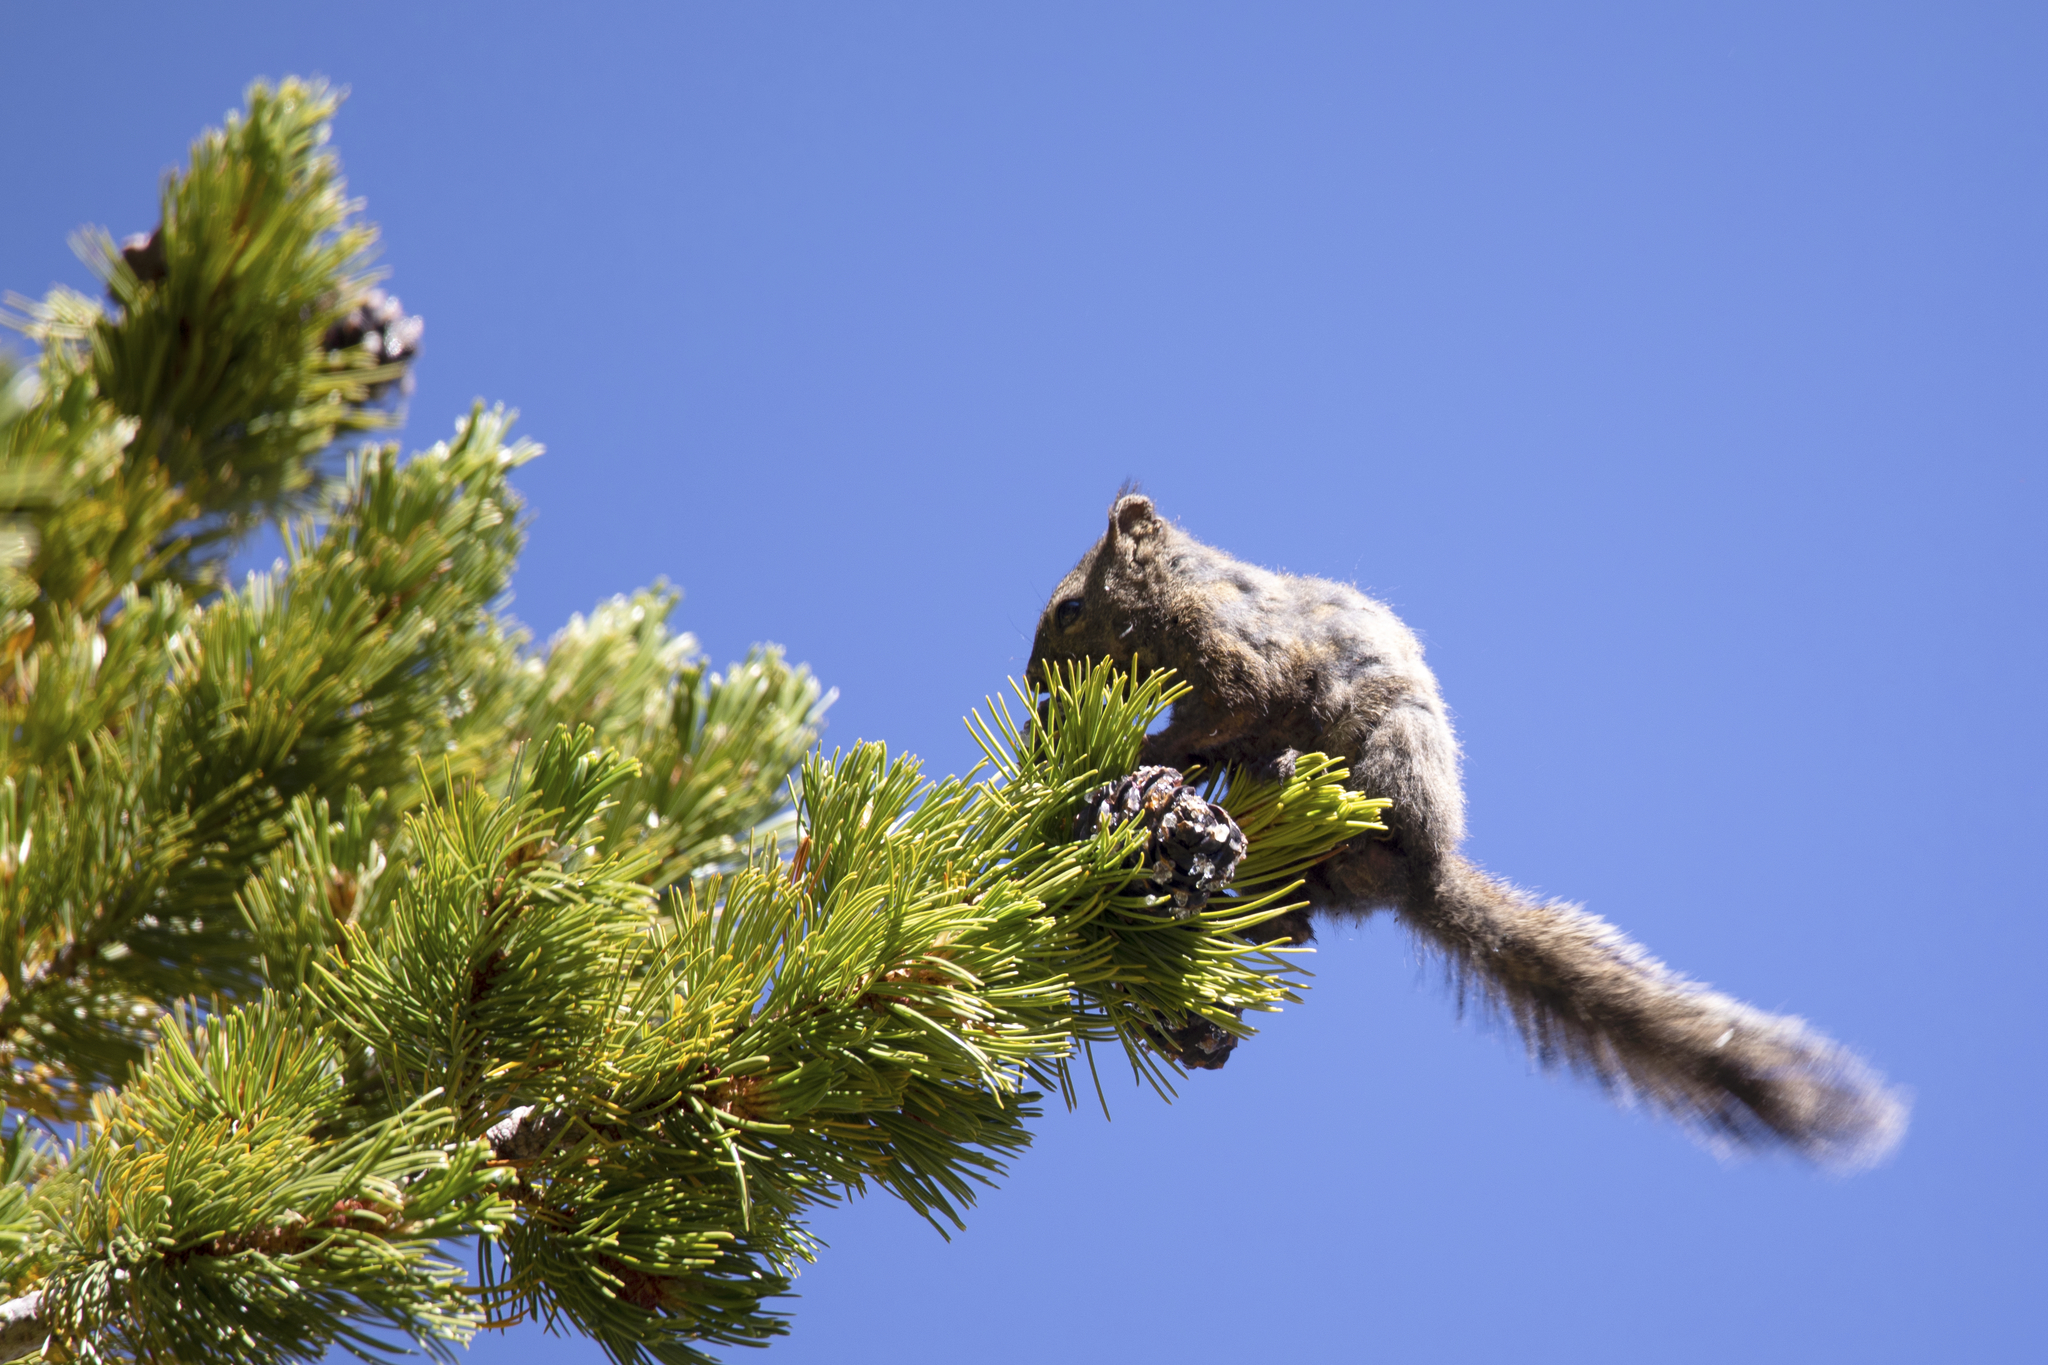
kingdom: Animalia
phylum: Chordata
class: Mammalia
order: Rodentia
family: Sciuridae
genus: Tamiasciurus
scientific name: Tamiasciurus hudsonicus
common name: Red squirrel
